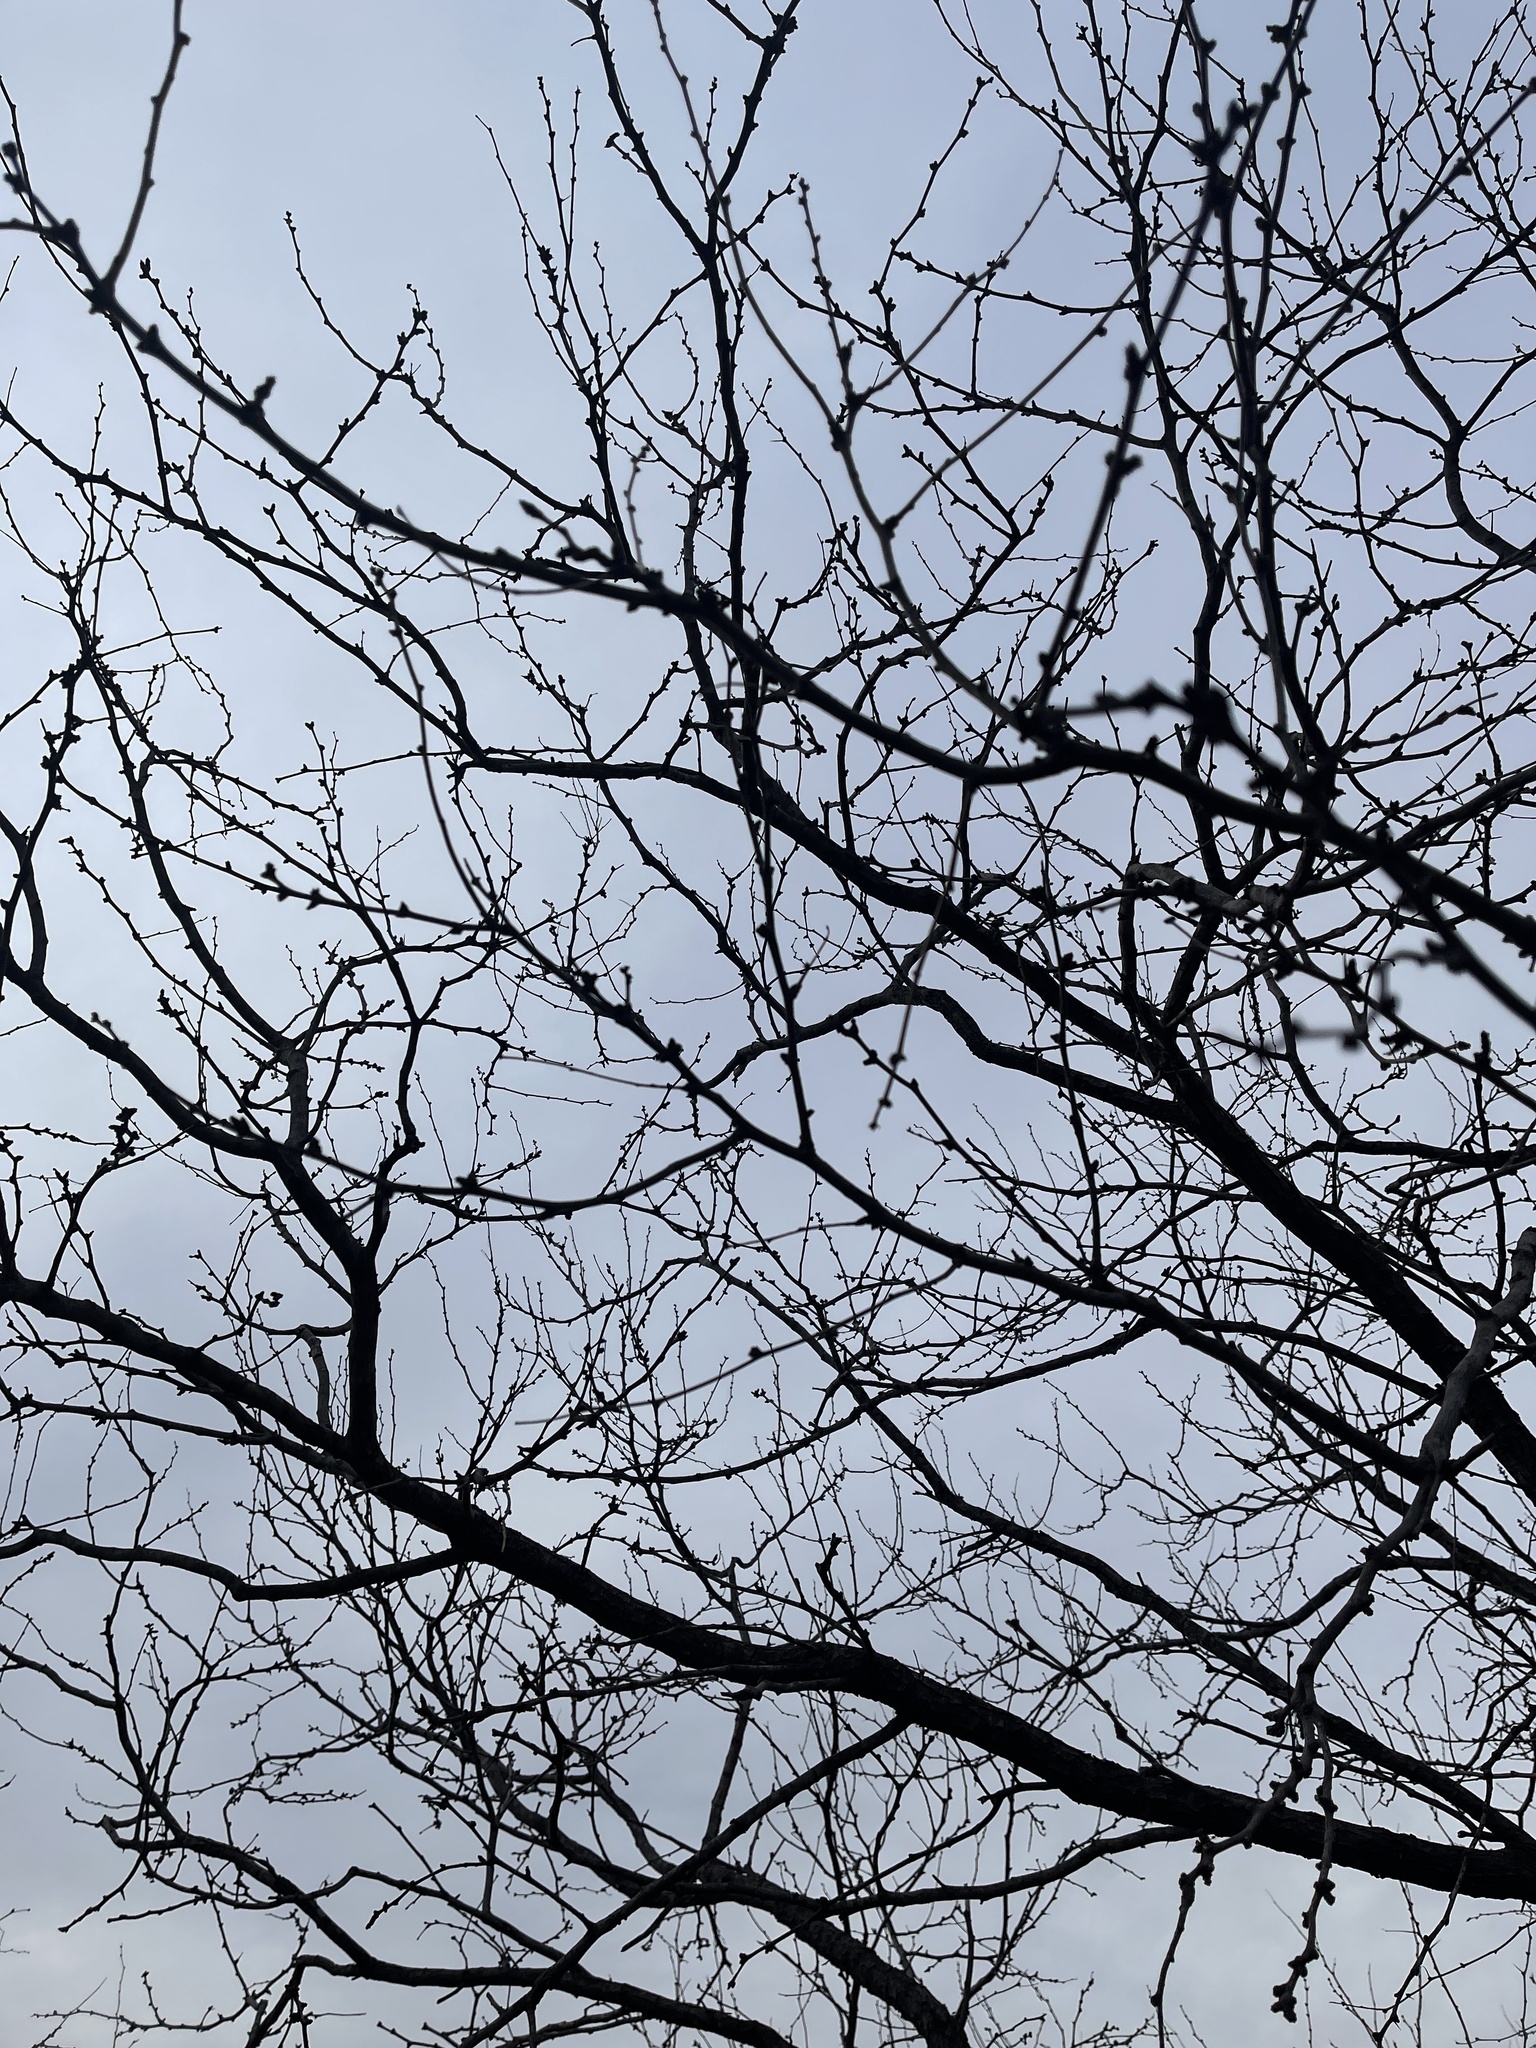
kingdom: Plantae
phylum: Tracheophyta
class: Magnoliopsida
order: Fabales
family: Fabaceae
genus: Prosopis
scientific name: Prosopis glandulosa
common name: Honey mesquite
